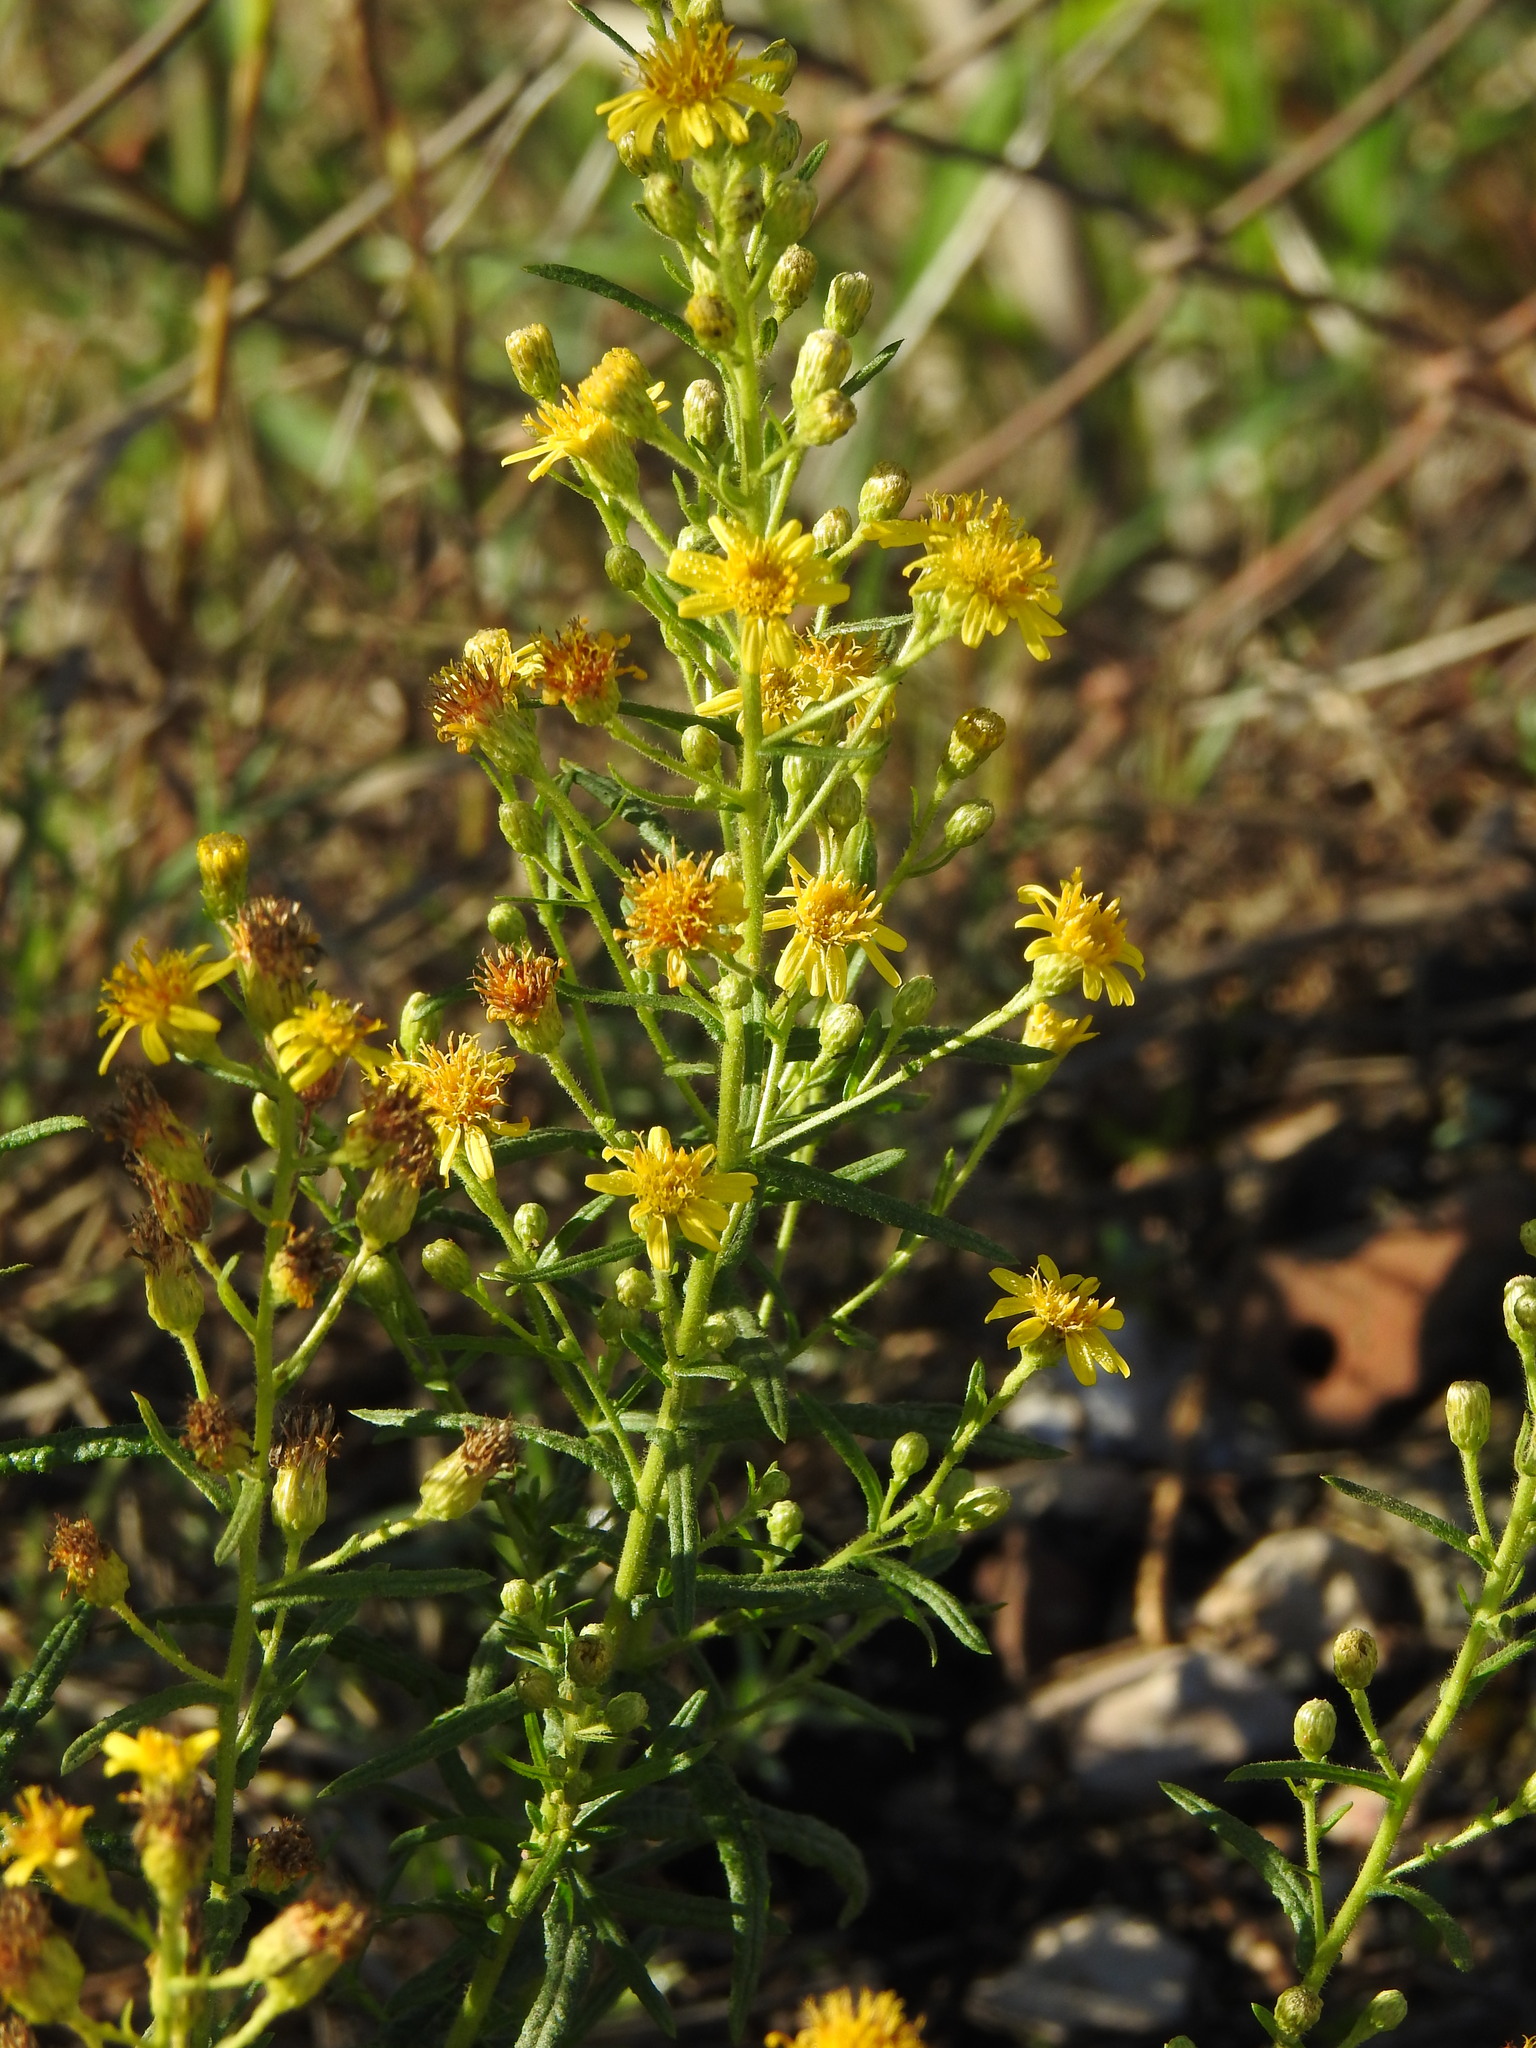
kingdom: Plantae
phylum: Tracheophyta
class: Magnoliopsida
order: Asterales
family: Asteraceae
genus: Dittrichia
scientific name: Dittrichia viscosa
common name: Woody fleabane
